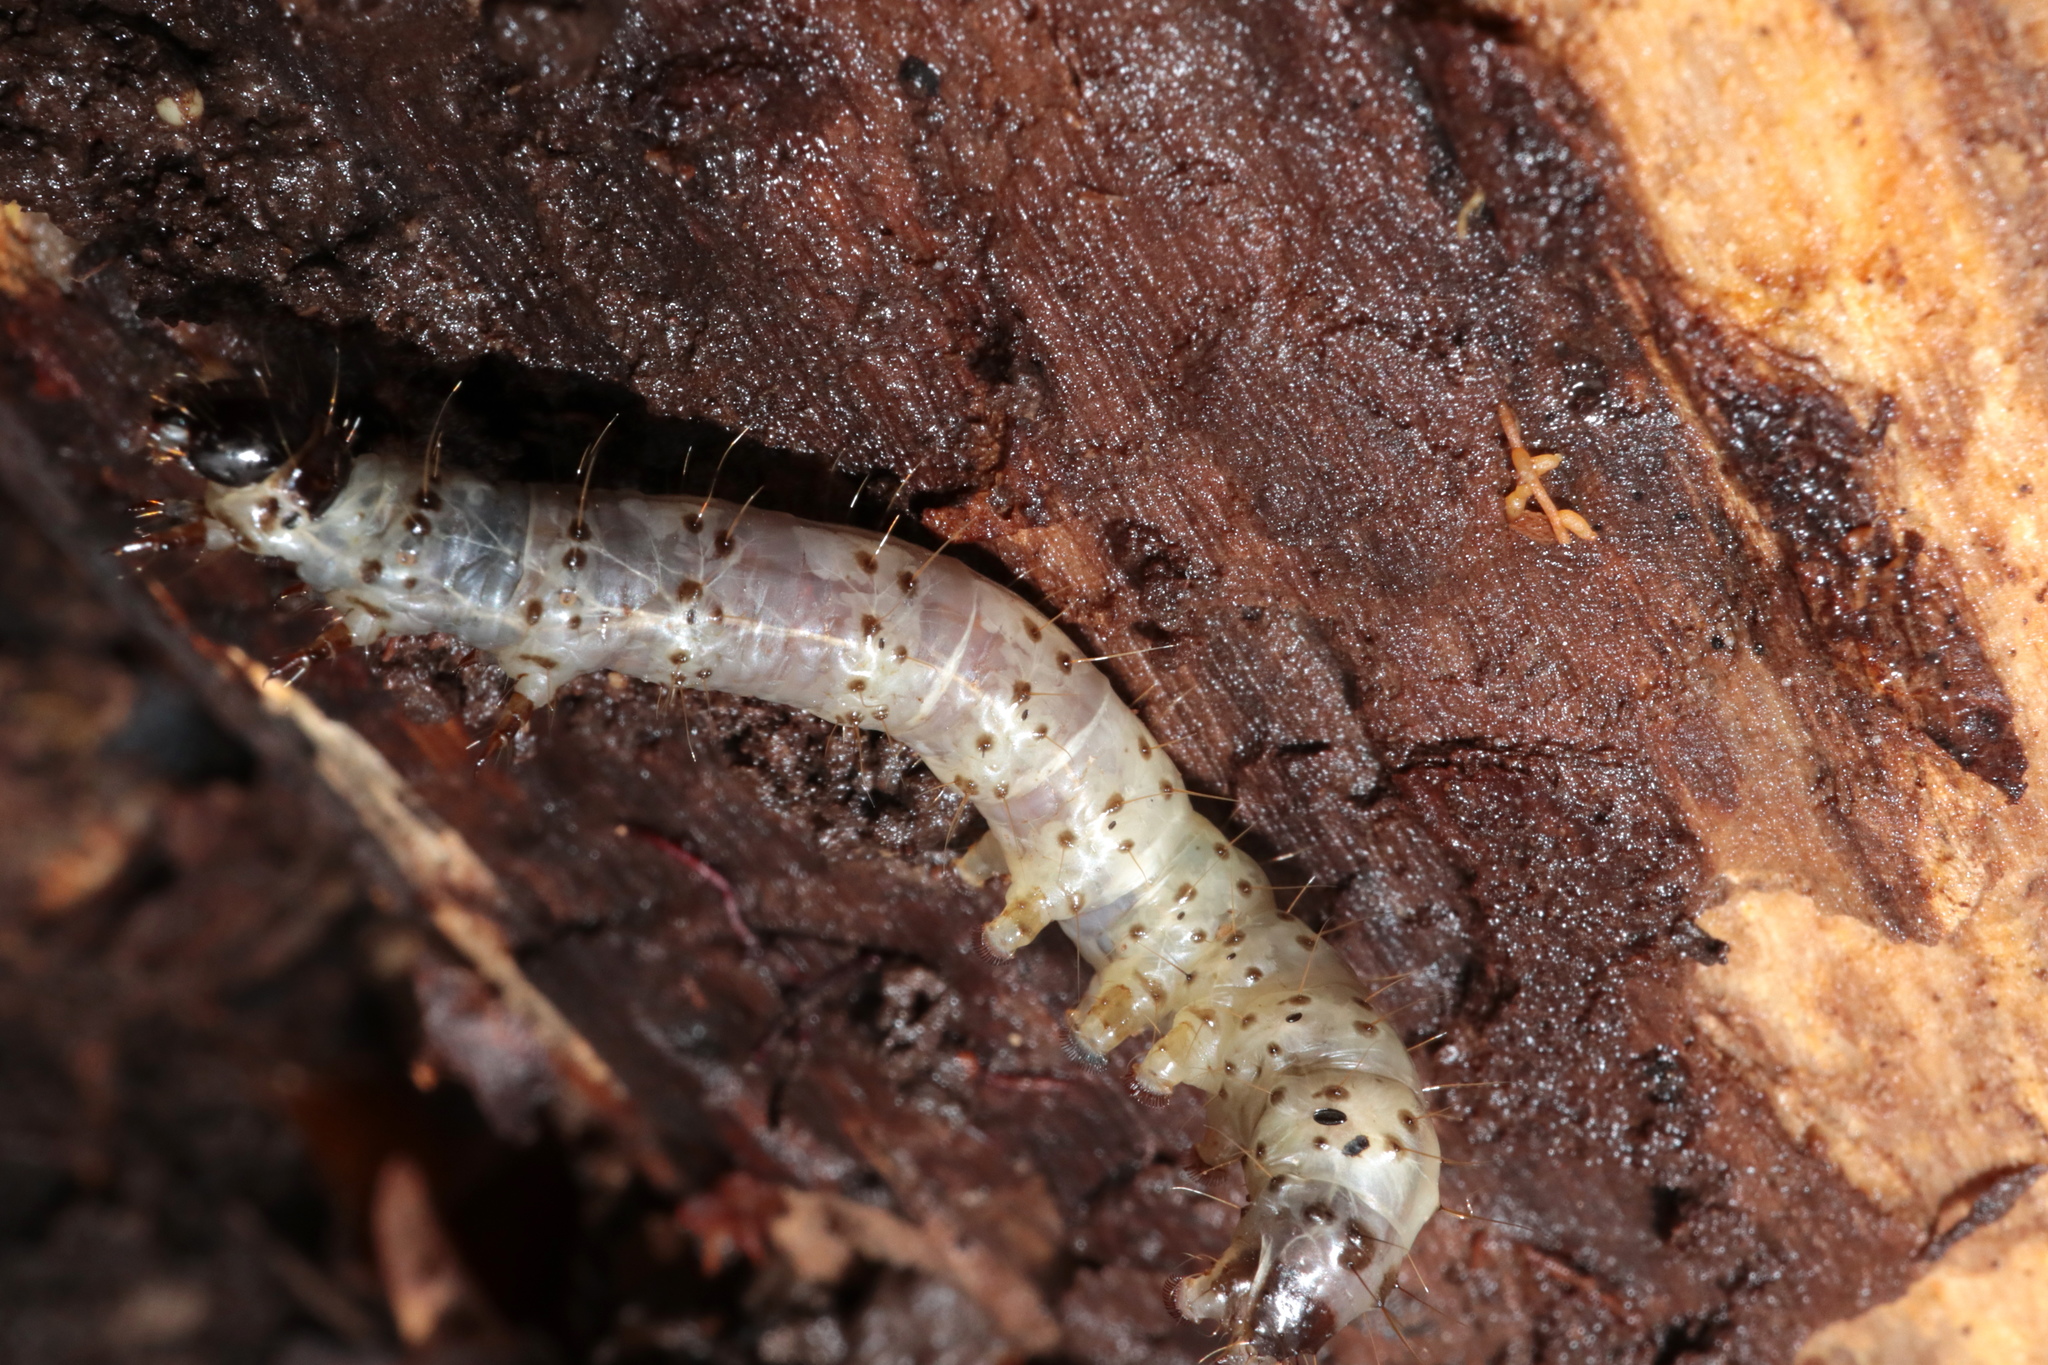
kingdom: Animalia
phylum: Arthropoda
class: Insecta
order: Lepidoptera
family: Erebidae
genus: Scolecocampa
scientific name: Scolecocampa liburna
